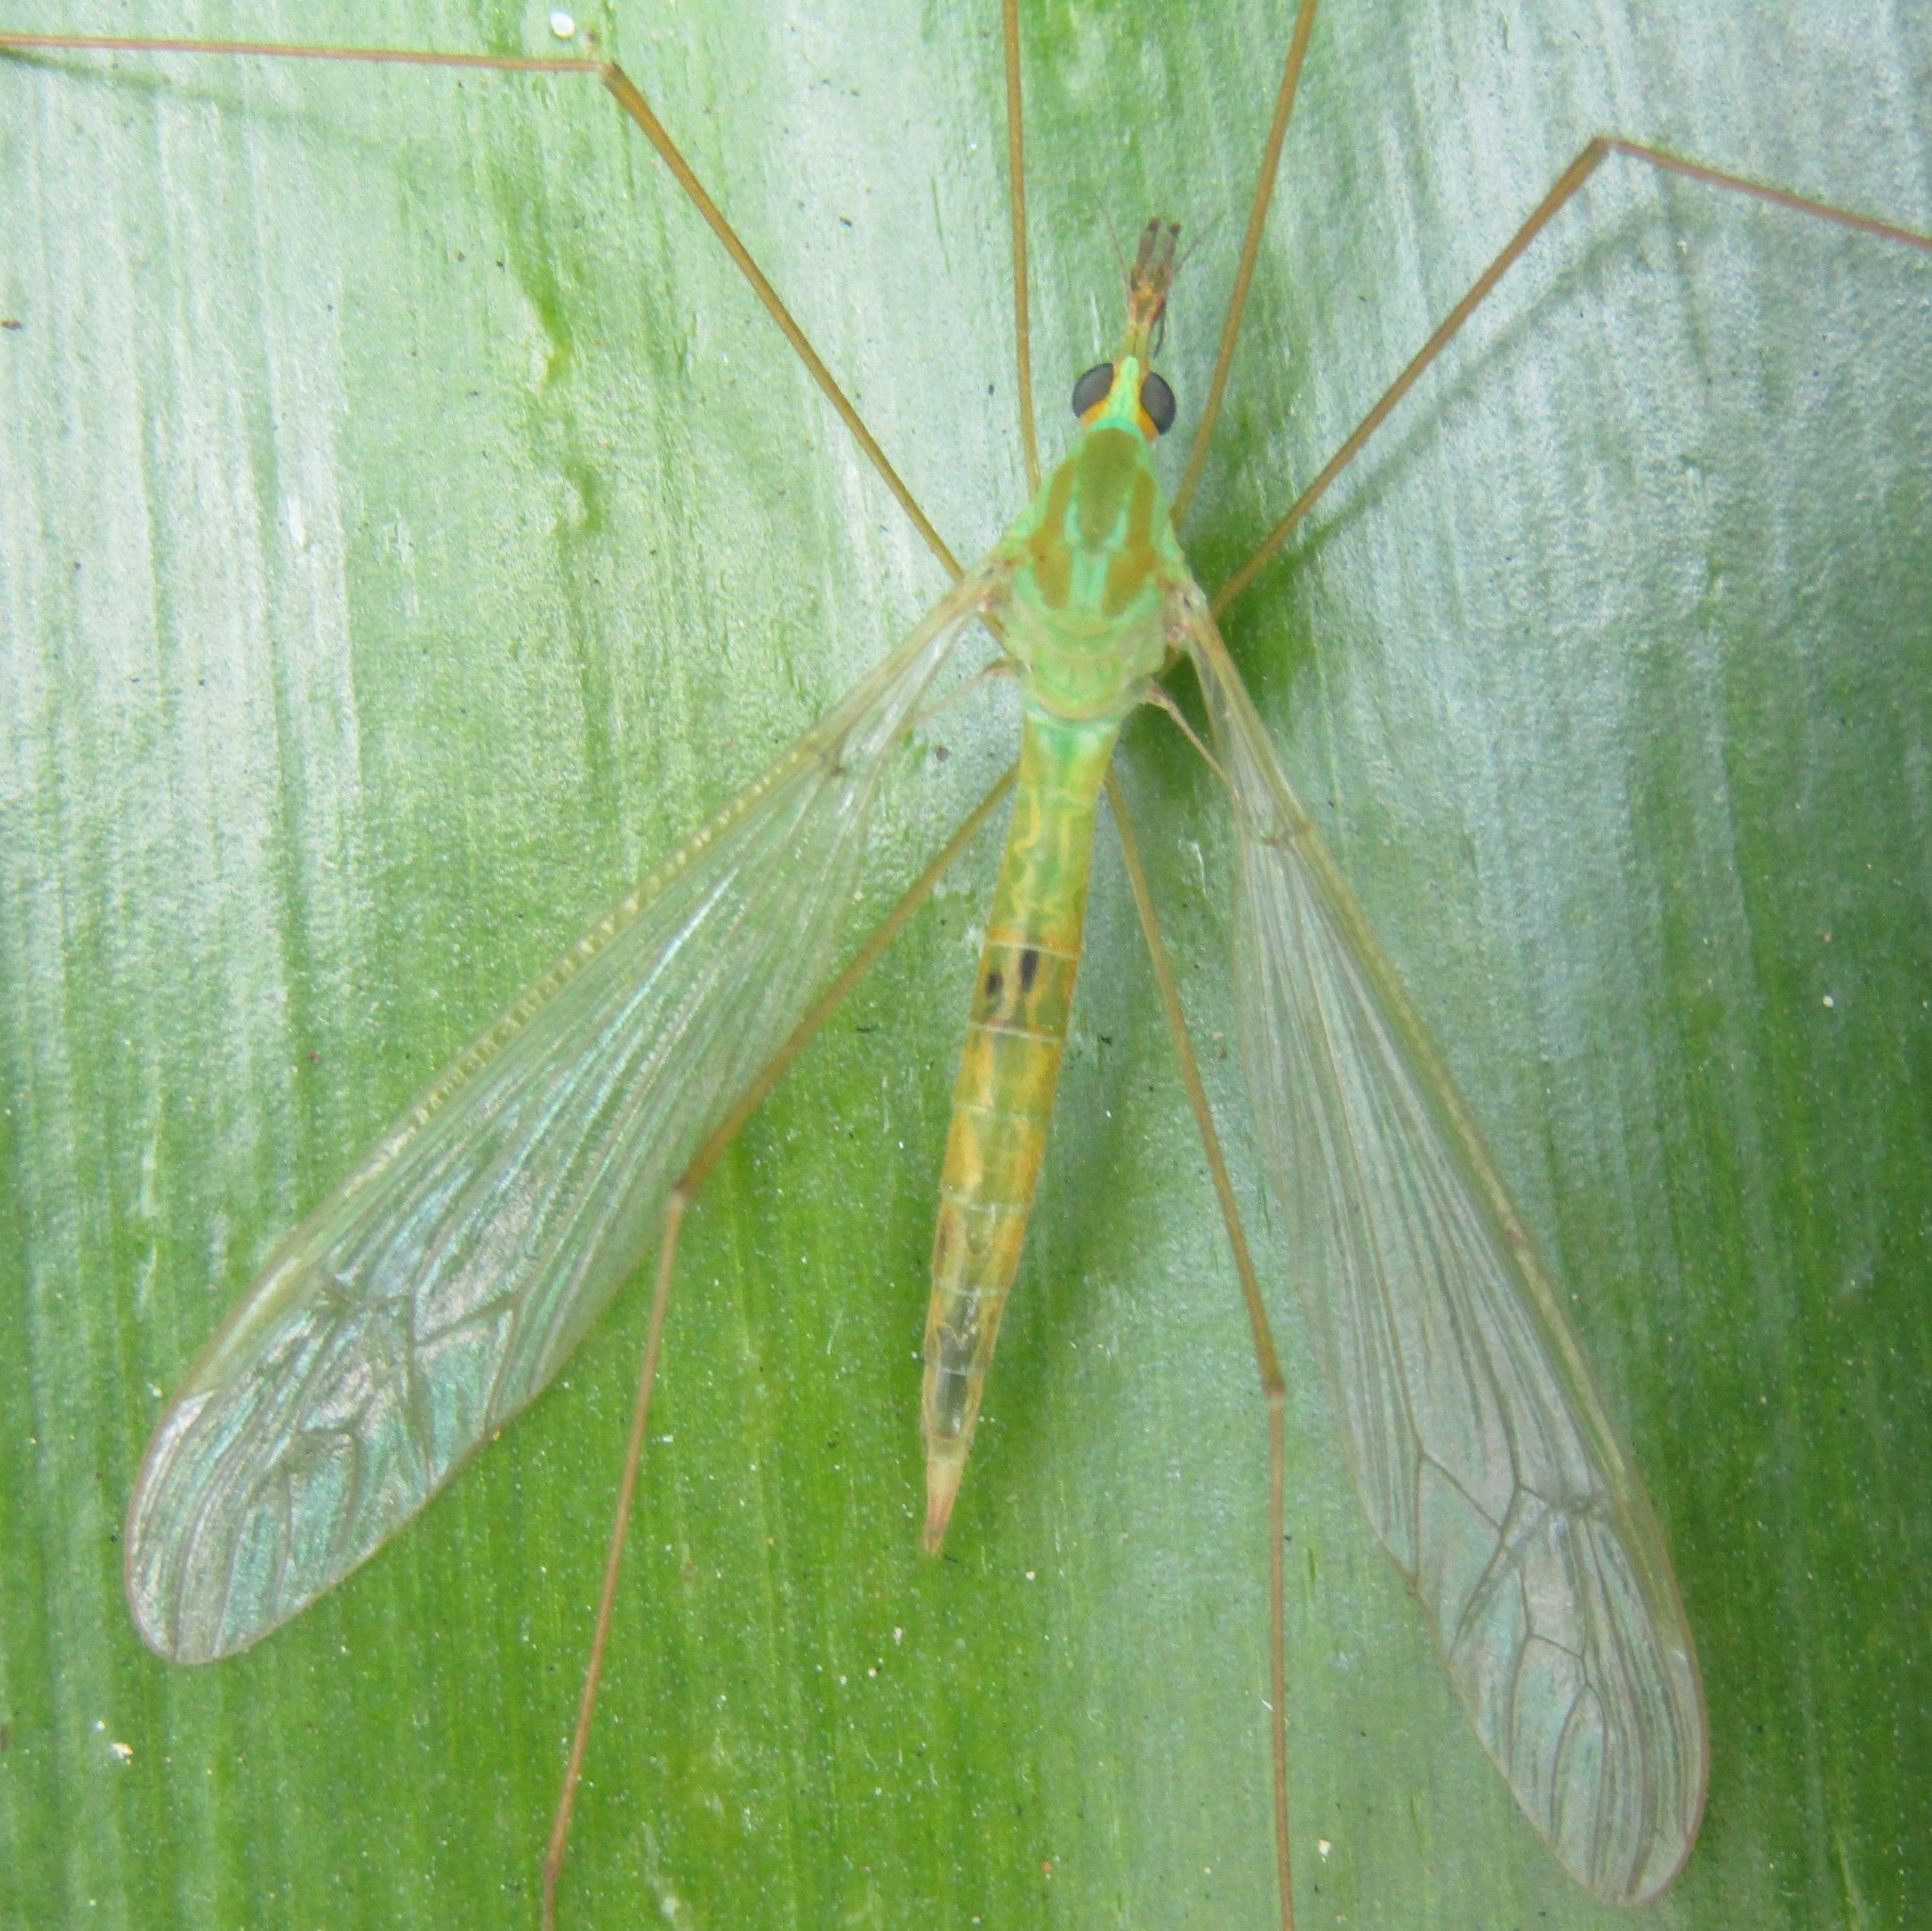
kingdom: Animalia
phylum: Arthropoda
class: Insecta
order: Diptera
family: Tipulidae
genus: Leptotarsus
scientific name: Leptotarsus virescens
